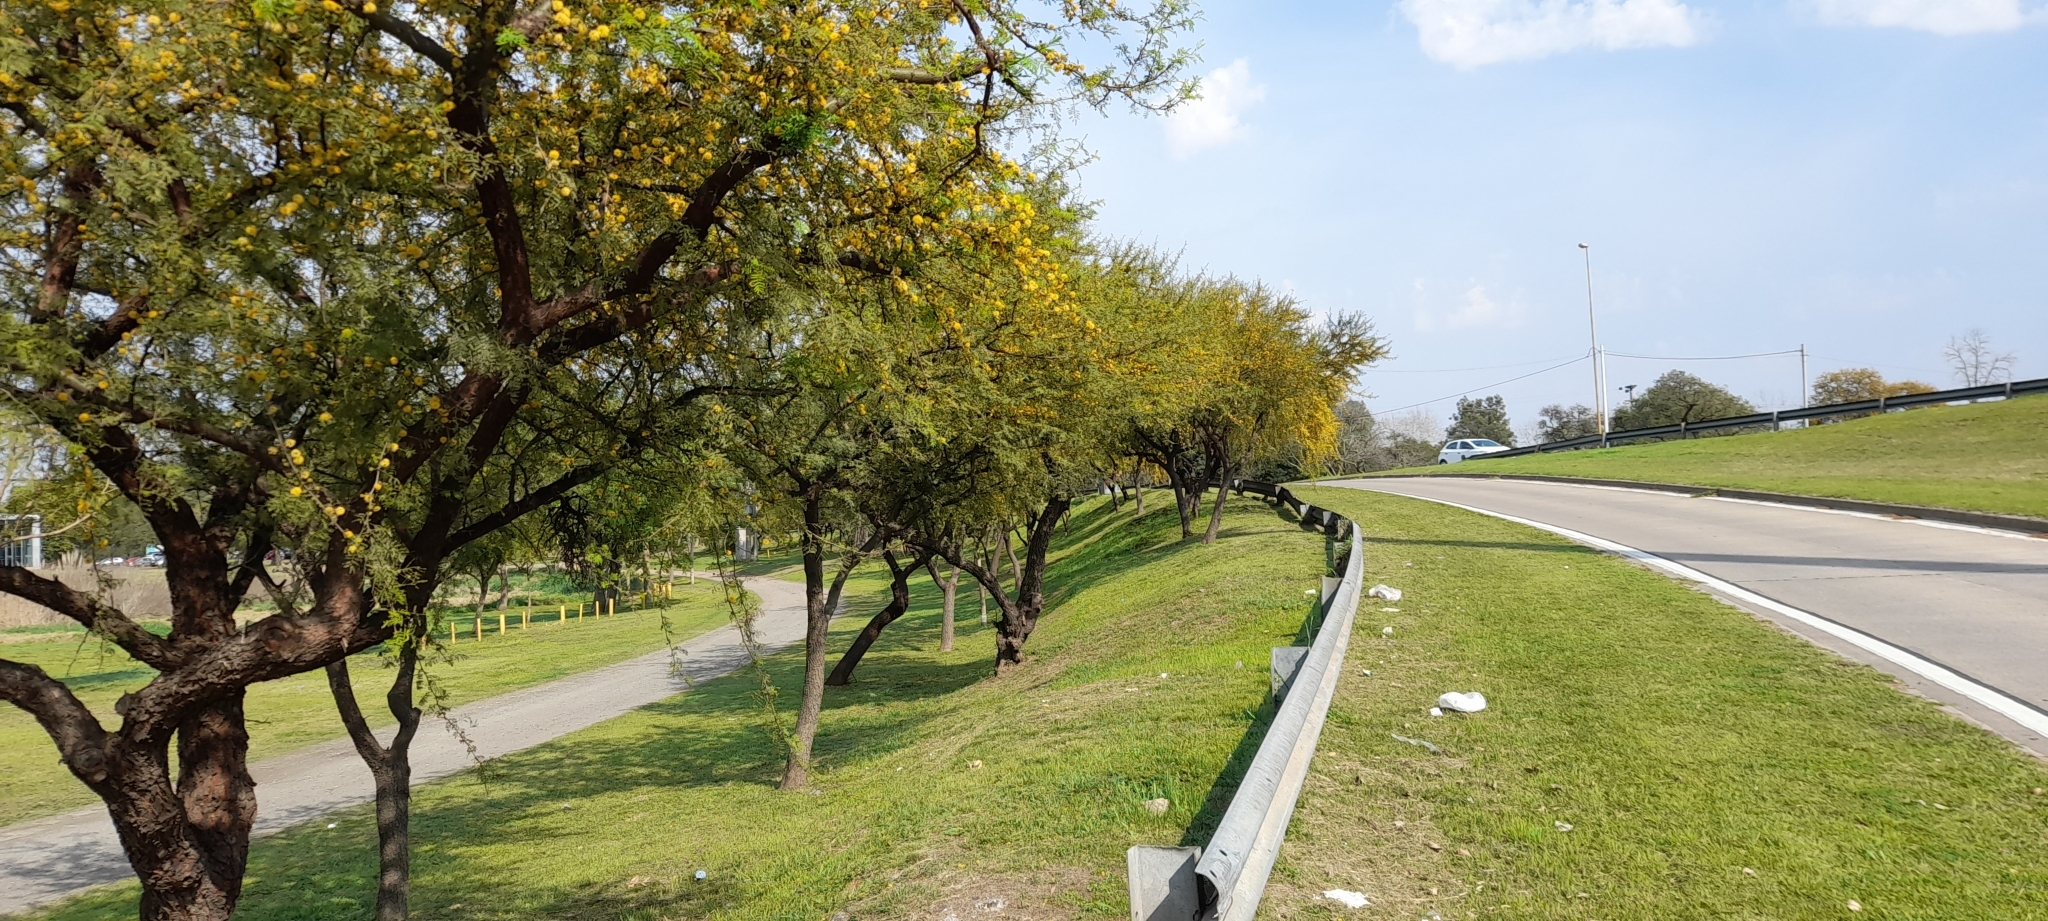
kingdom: Plantae
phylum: Tracheophyta
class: Magnoliopsida
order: Fabales
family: Fabaceae
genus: Vachellia
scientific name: Vachellia caven
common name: Roman cassie
